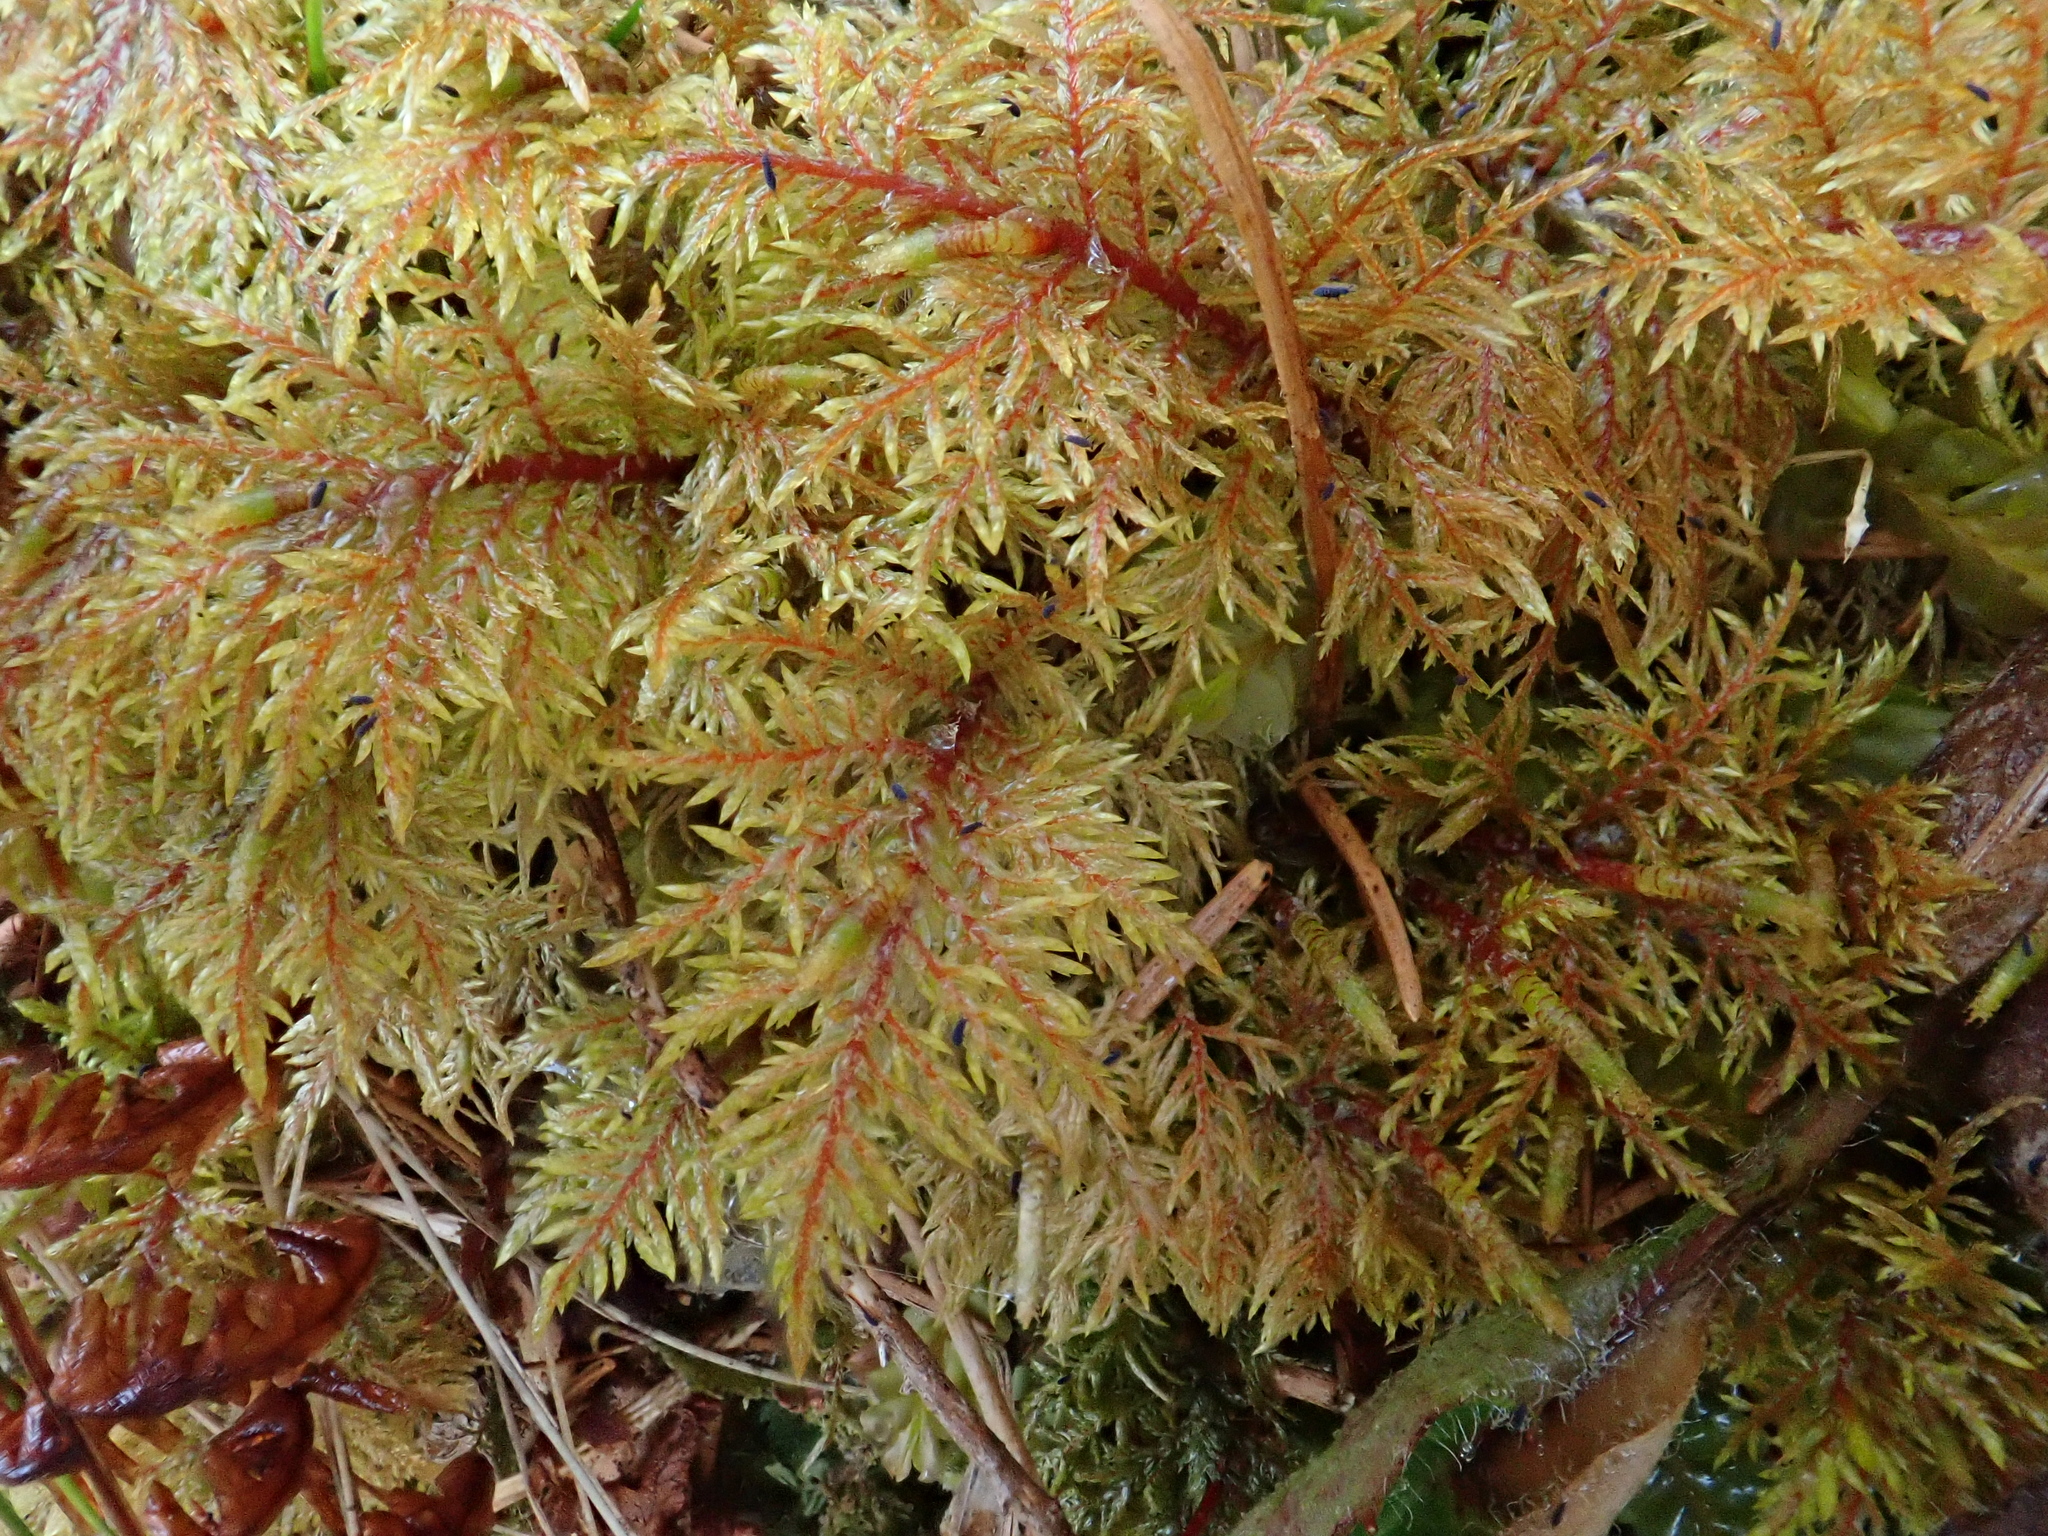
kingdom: Plantae
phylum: Bryophyta
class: Bryopsida
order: Hypnales
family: Hylocomiaceae
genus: Hylocomium
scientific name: Hylocomium splendens
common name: Stairstep moss
